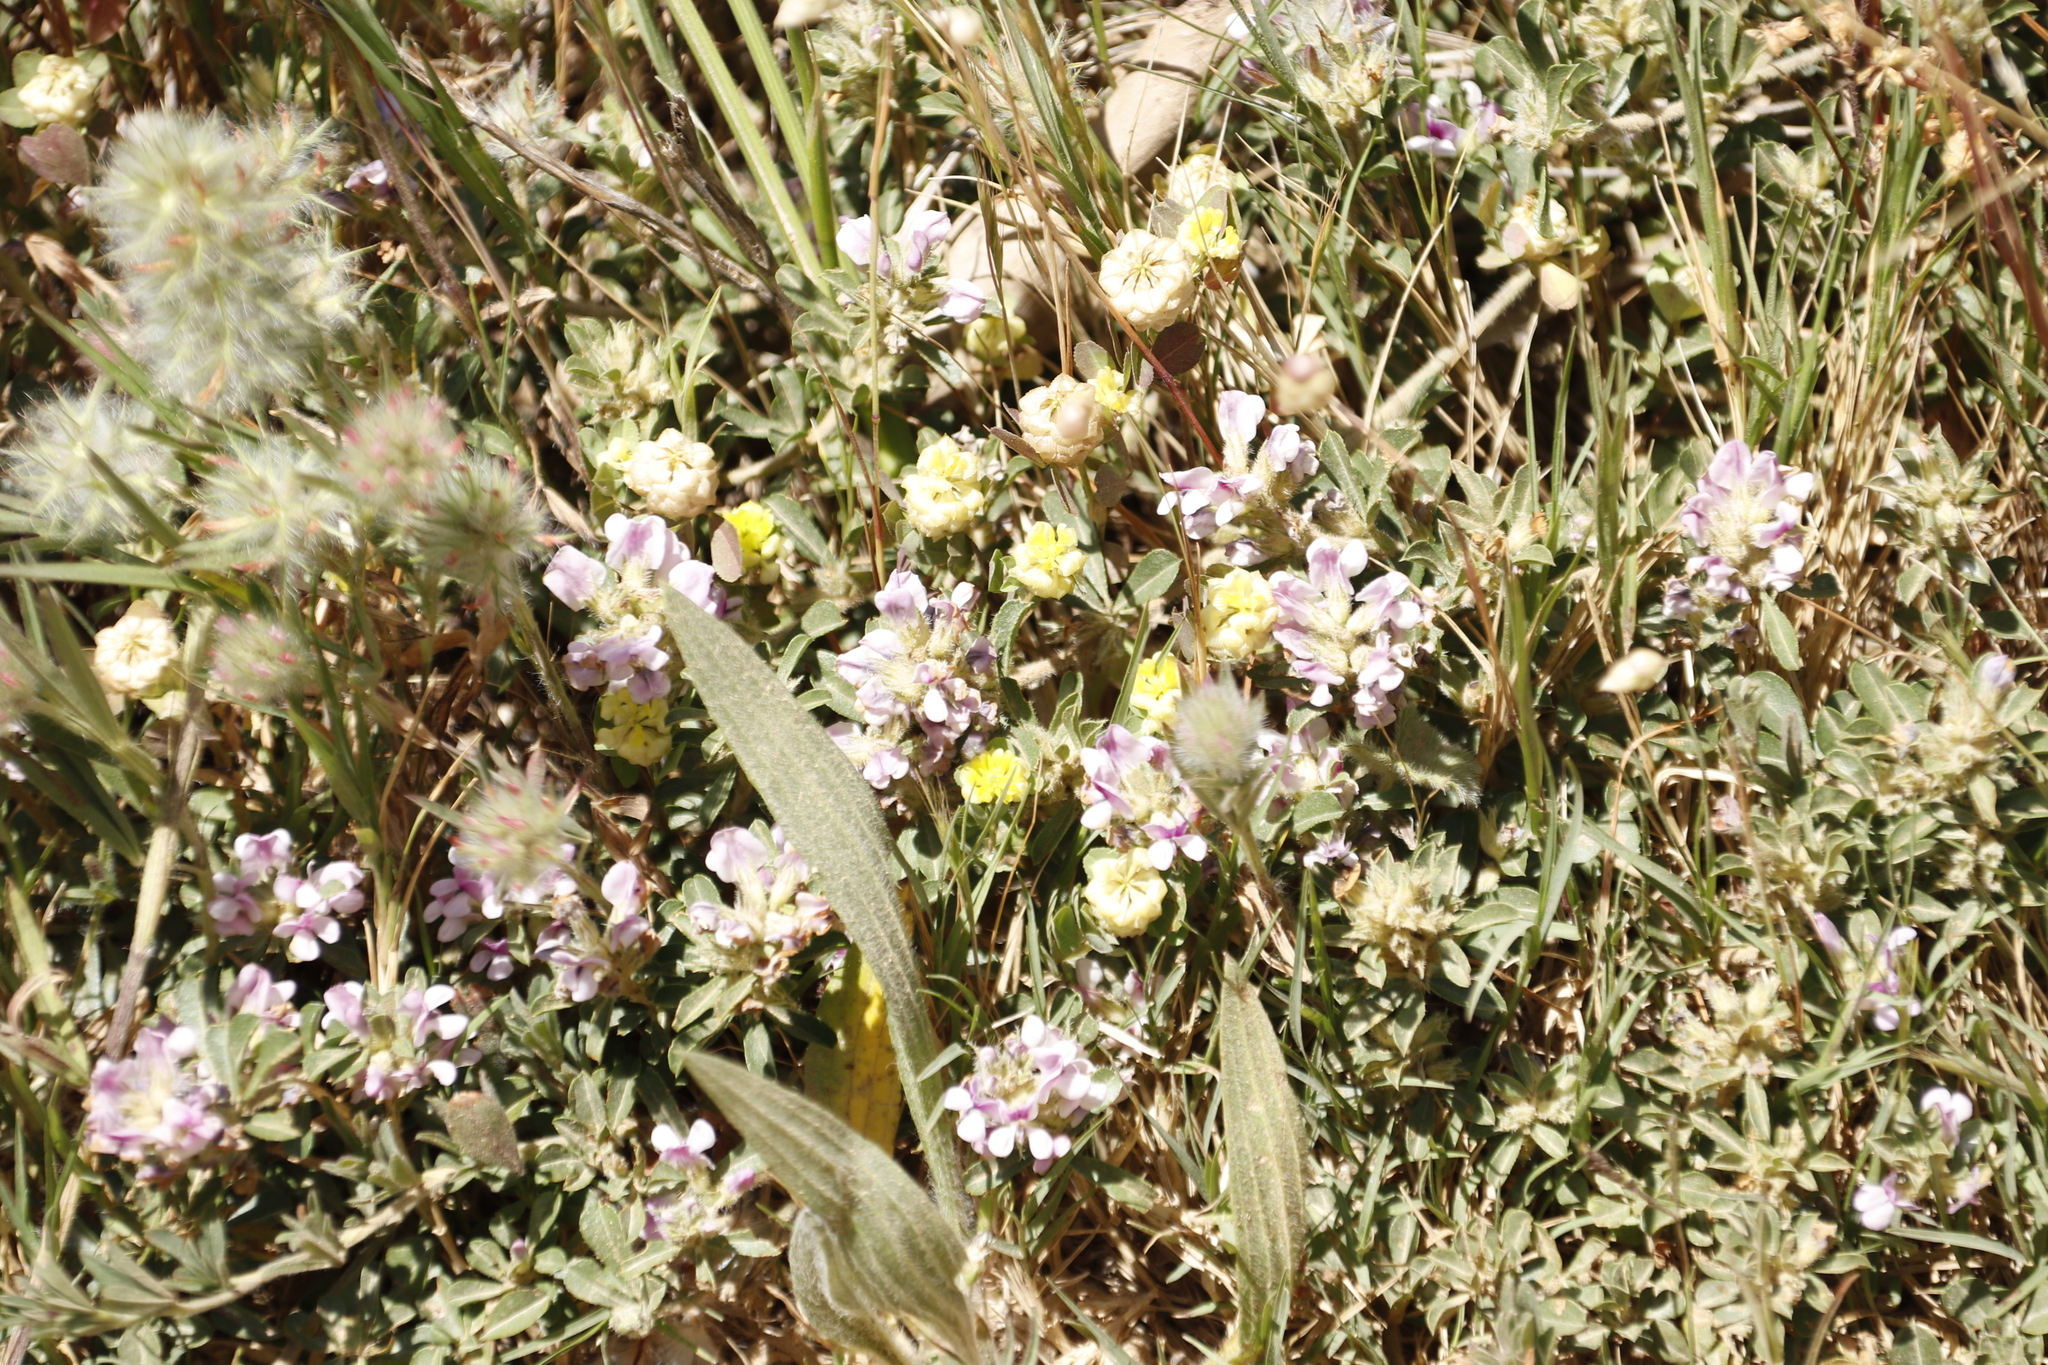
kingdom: Plantae
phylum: Tracheophyta
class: Magnoliopsida
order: Fabales
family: Fabaceae
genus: Psoralea
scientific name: Psoralea
